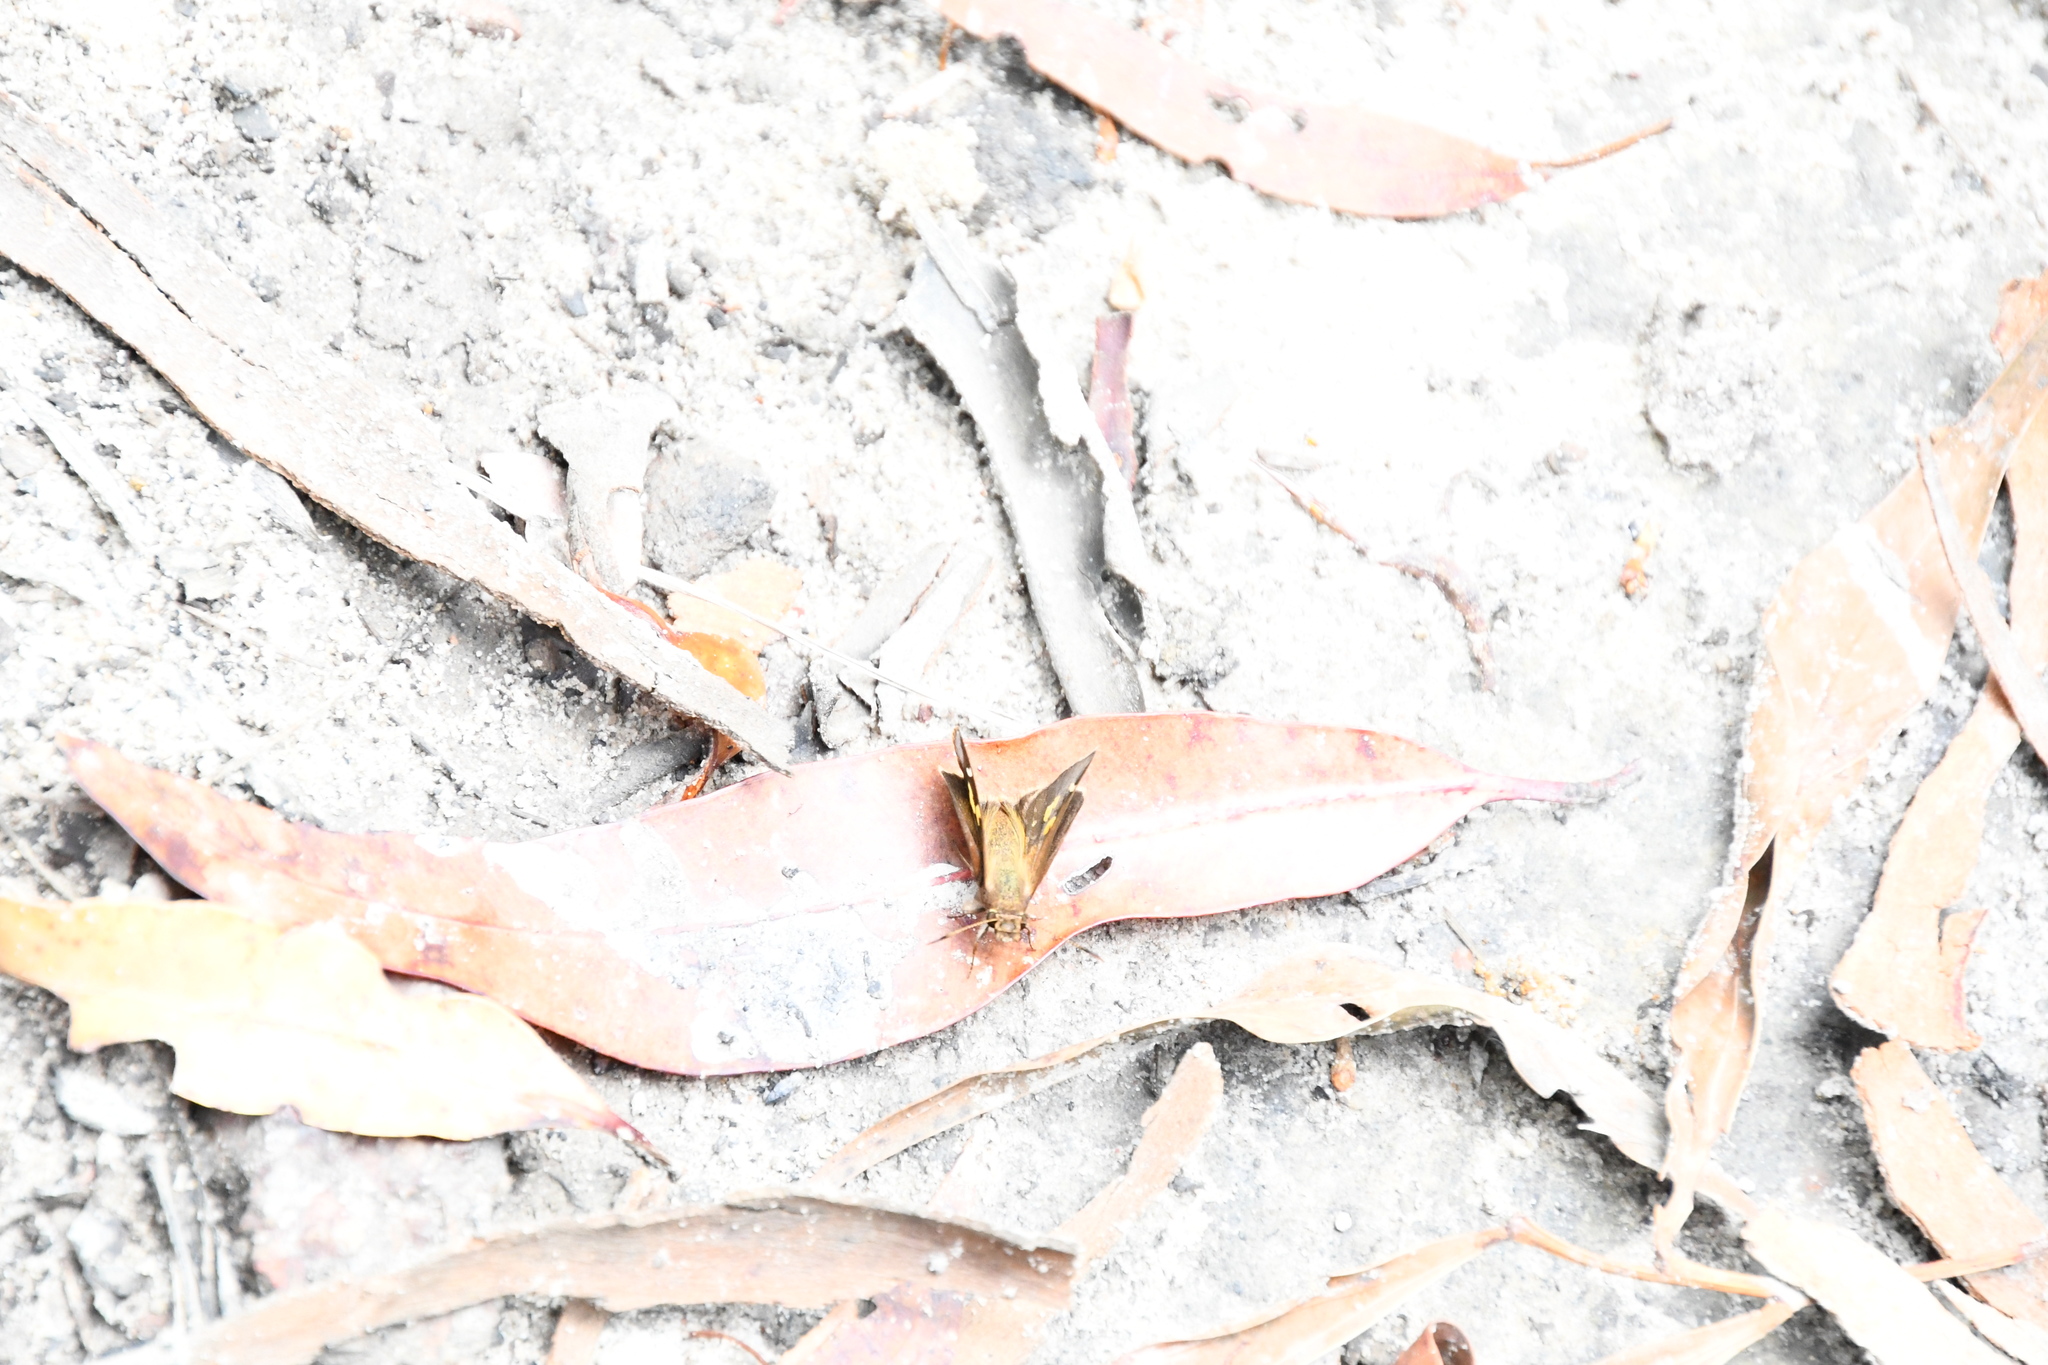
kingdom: Animalia
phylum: Arthropoda
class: Insecta
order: Lepidoptera
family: Hesperiidae
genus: Toxidia
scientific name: Toxidia doubledayi
